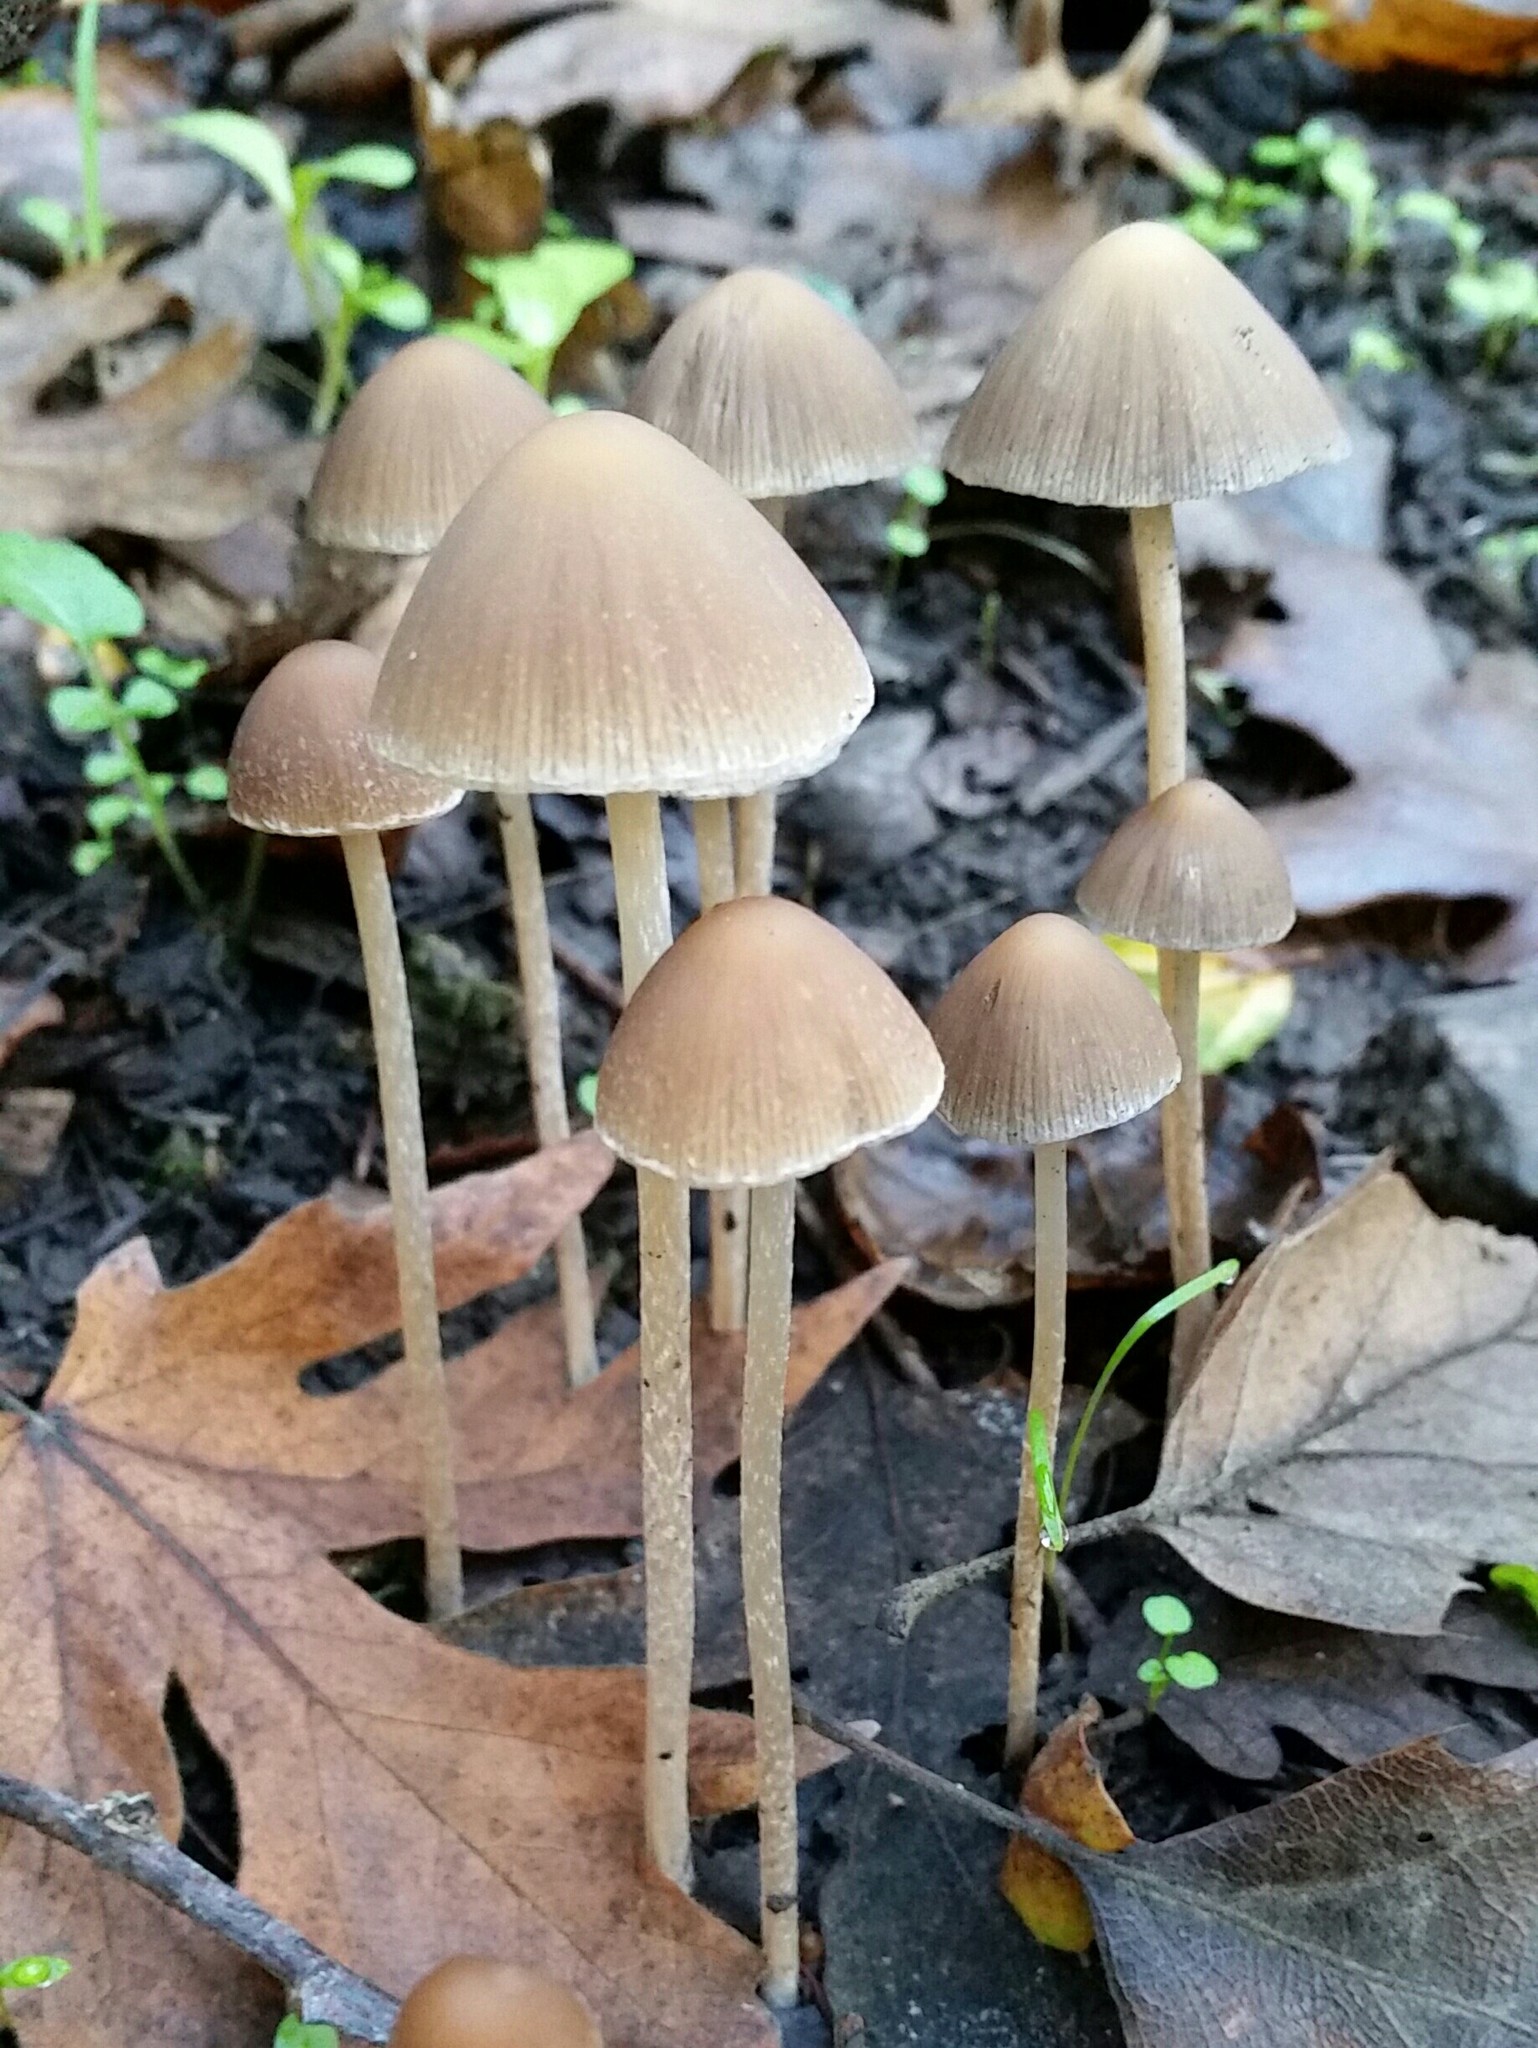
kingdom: Fungi
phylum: Basidiomycota
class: Agaricomycetes
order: Agaricales
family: Psathyrellaceae
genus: Psathyrella
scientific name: Psathyrella longipes
